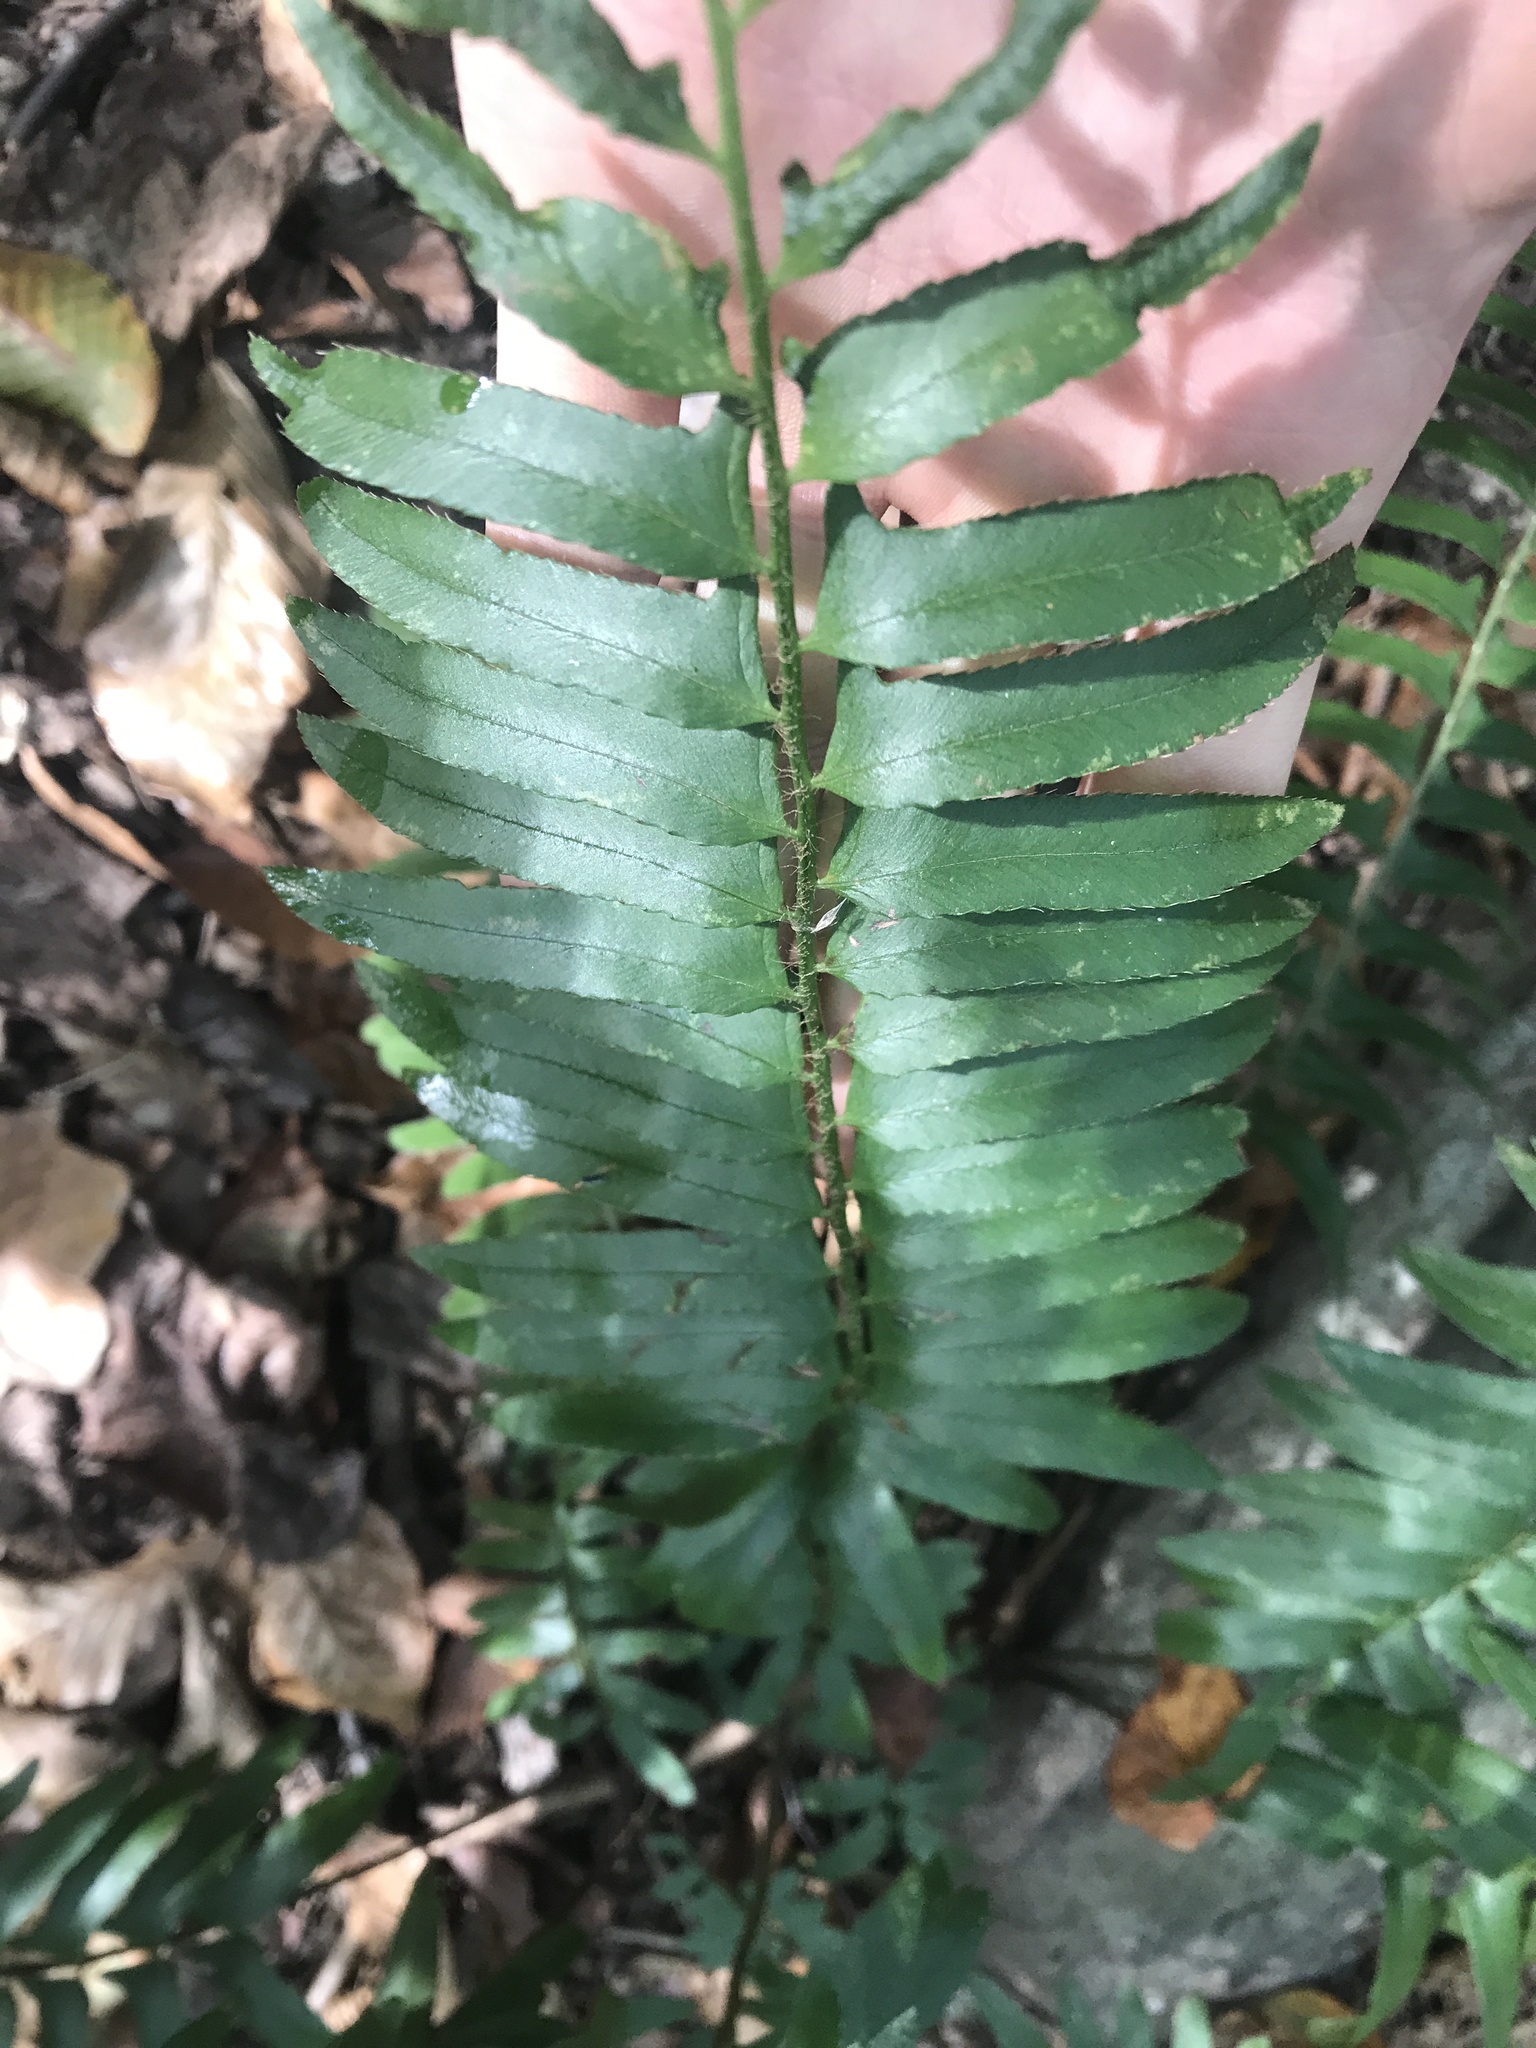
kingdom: Plantae
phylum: Tracheophyta
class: Polypodiopsida
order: Polypodiales
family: Dryopteridaceae
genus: Polystichum
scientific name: Polystichum acrostichoides
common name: Christmas fern
